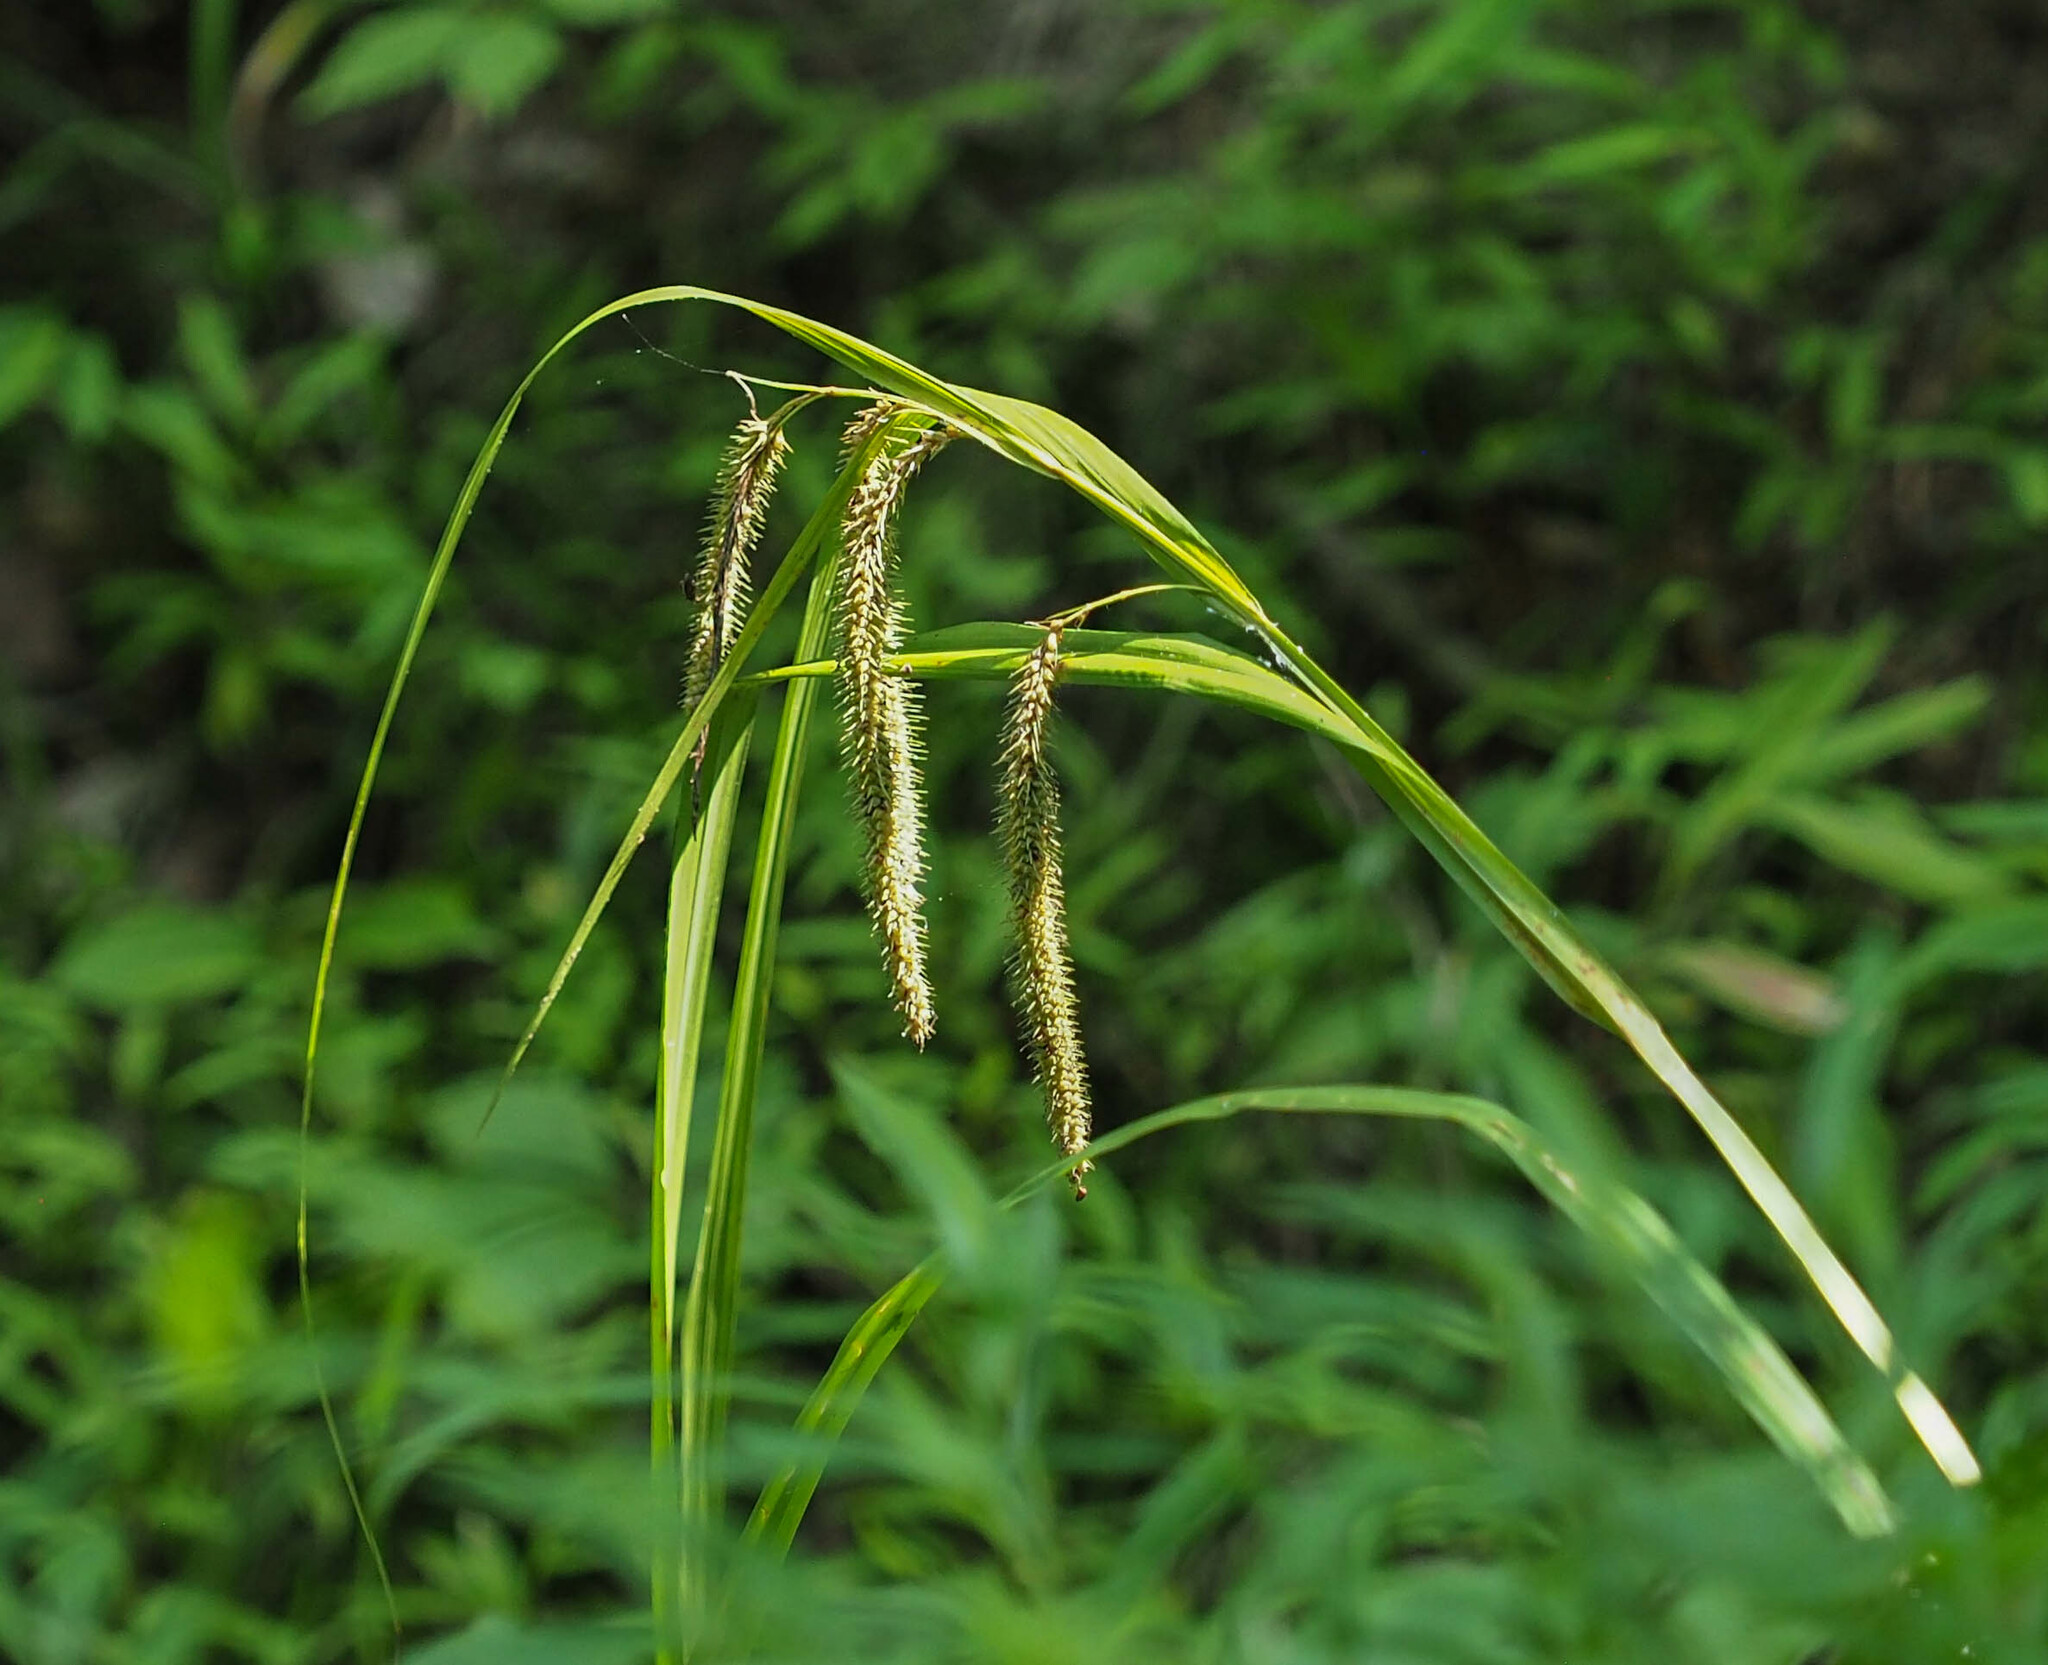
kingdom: Plantae
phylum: Tracheophyta
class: Liliopsida
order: Poales
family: Cyperaceae
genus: Carex
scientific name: Carex crinita
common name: Fringed sedge
